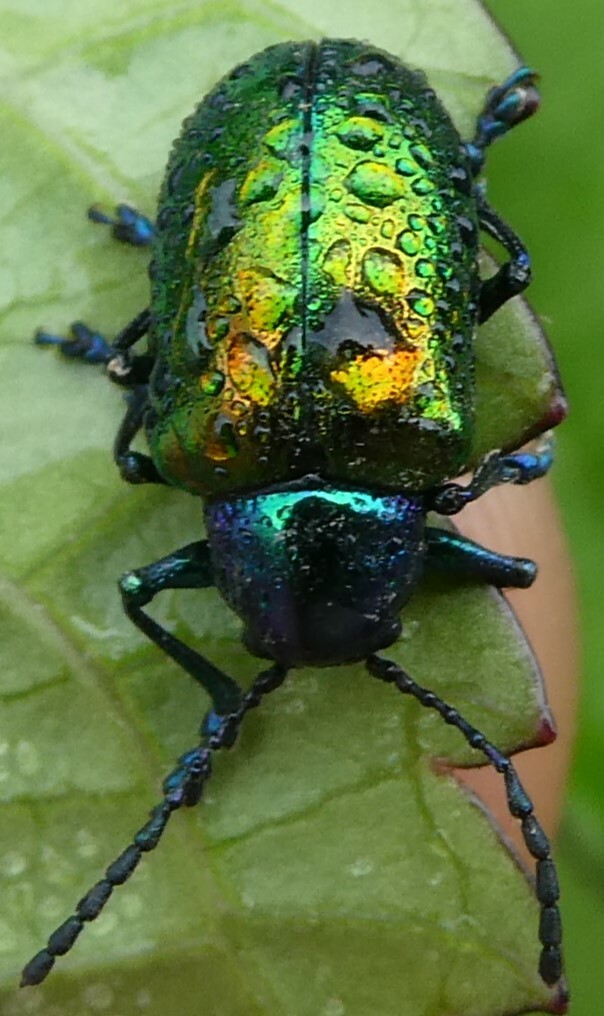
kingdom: Animalia
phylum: Arthropoda
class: Insecta
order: Coleoptera
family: Chrysomelidae
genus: Chrysochus
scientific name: Chrysochus auratus
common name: Dogbane leaf beetle
